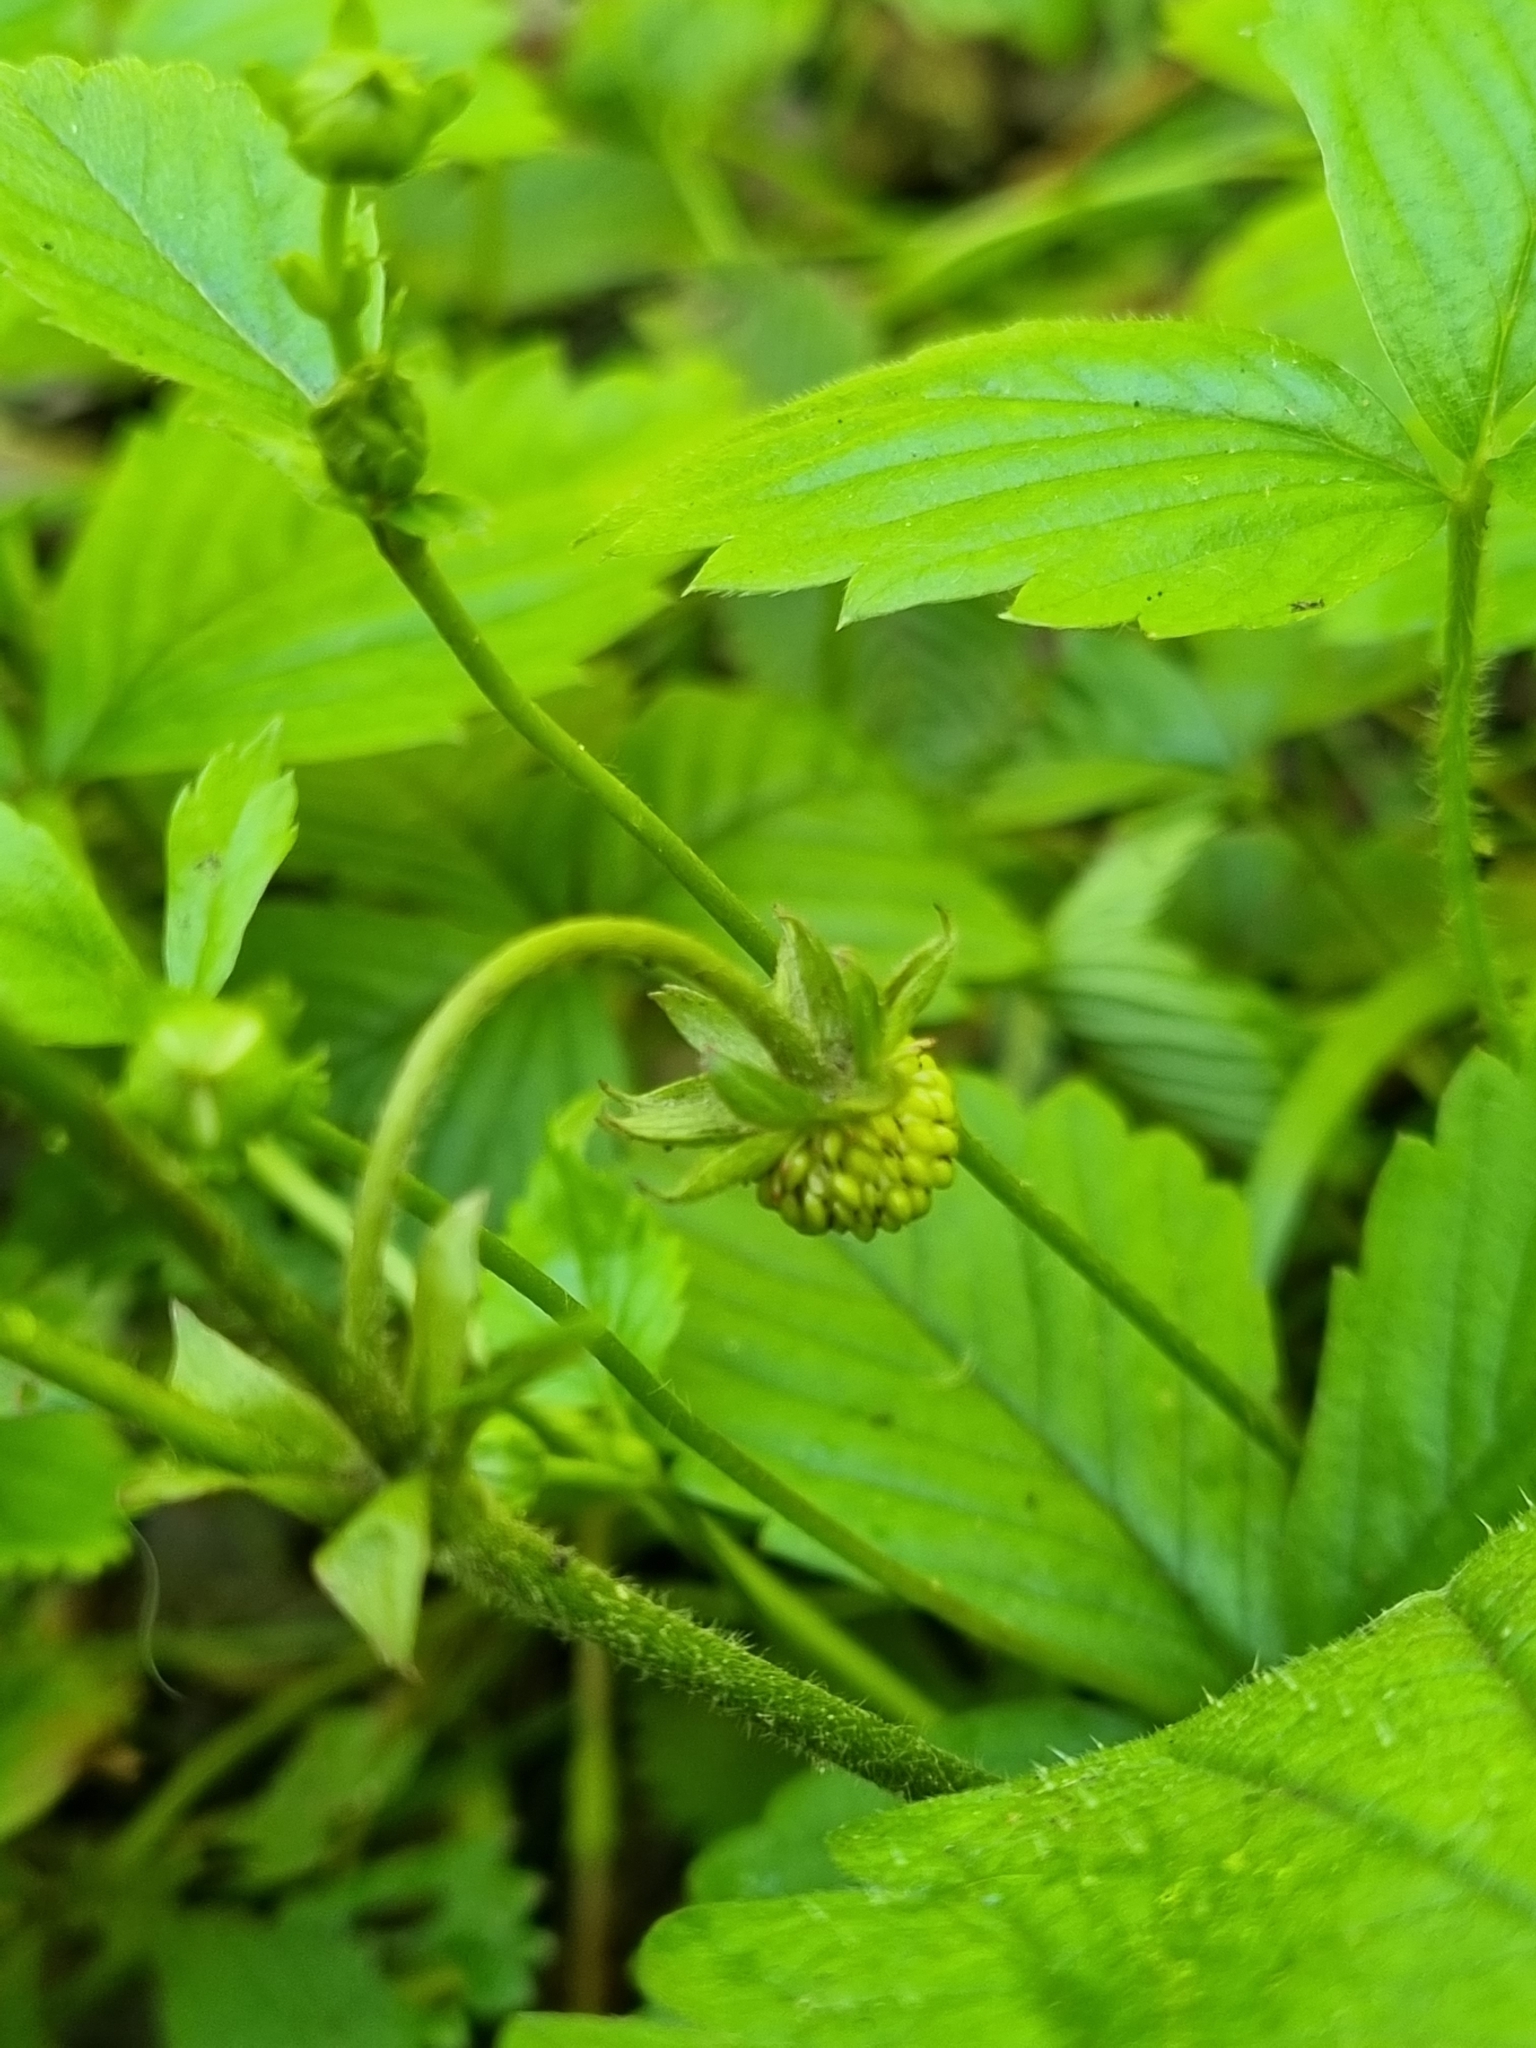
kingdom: Plantae
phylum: Tracheophyta
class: Magnoliopsida
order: Rosales
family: Rosaceae
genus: Fragaria
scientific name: Fragaria vesca
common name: Wild strawberry
